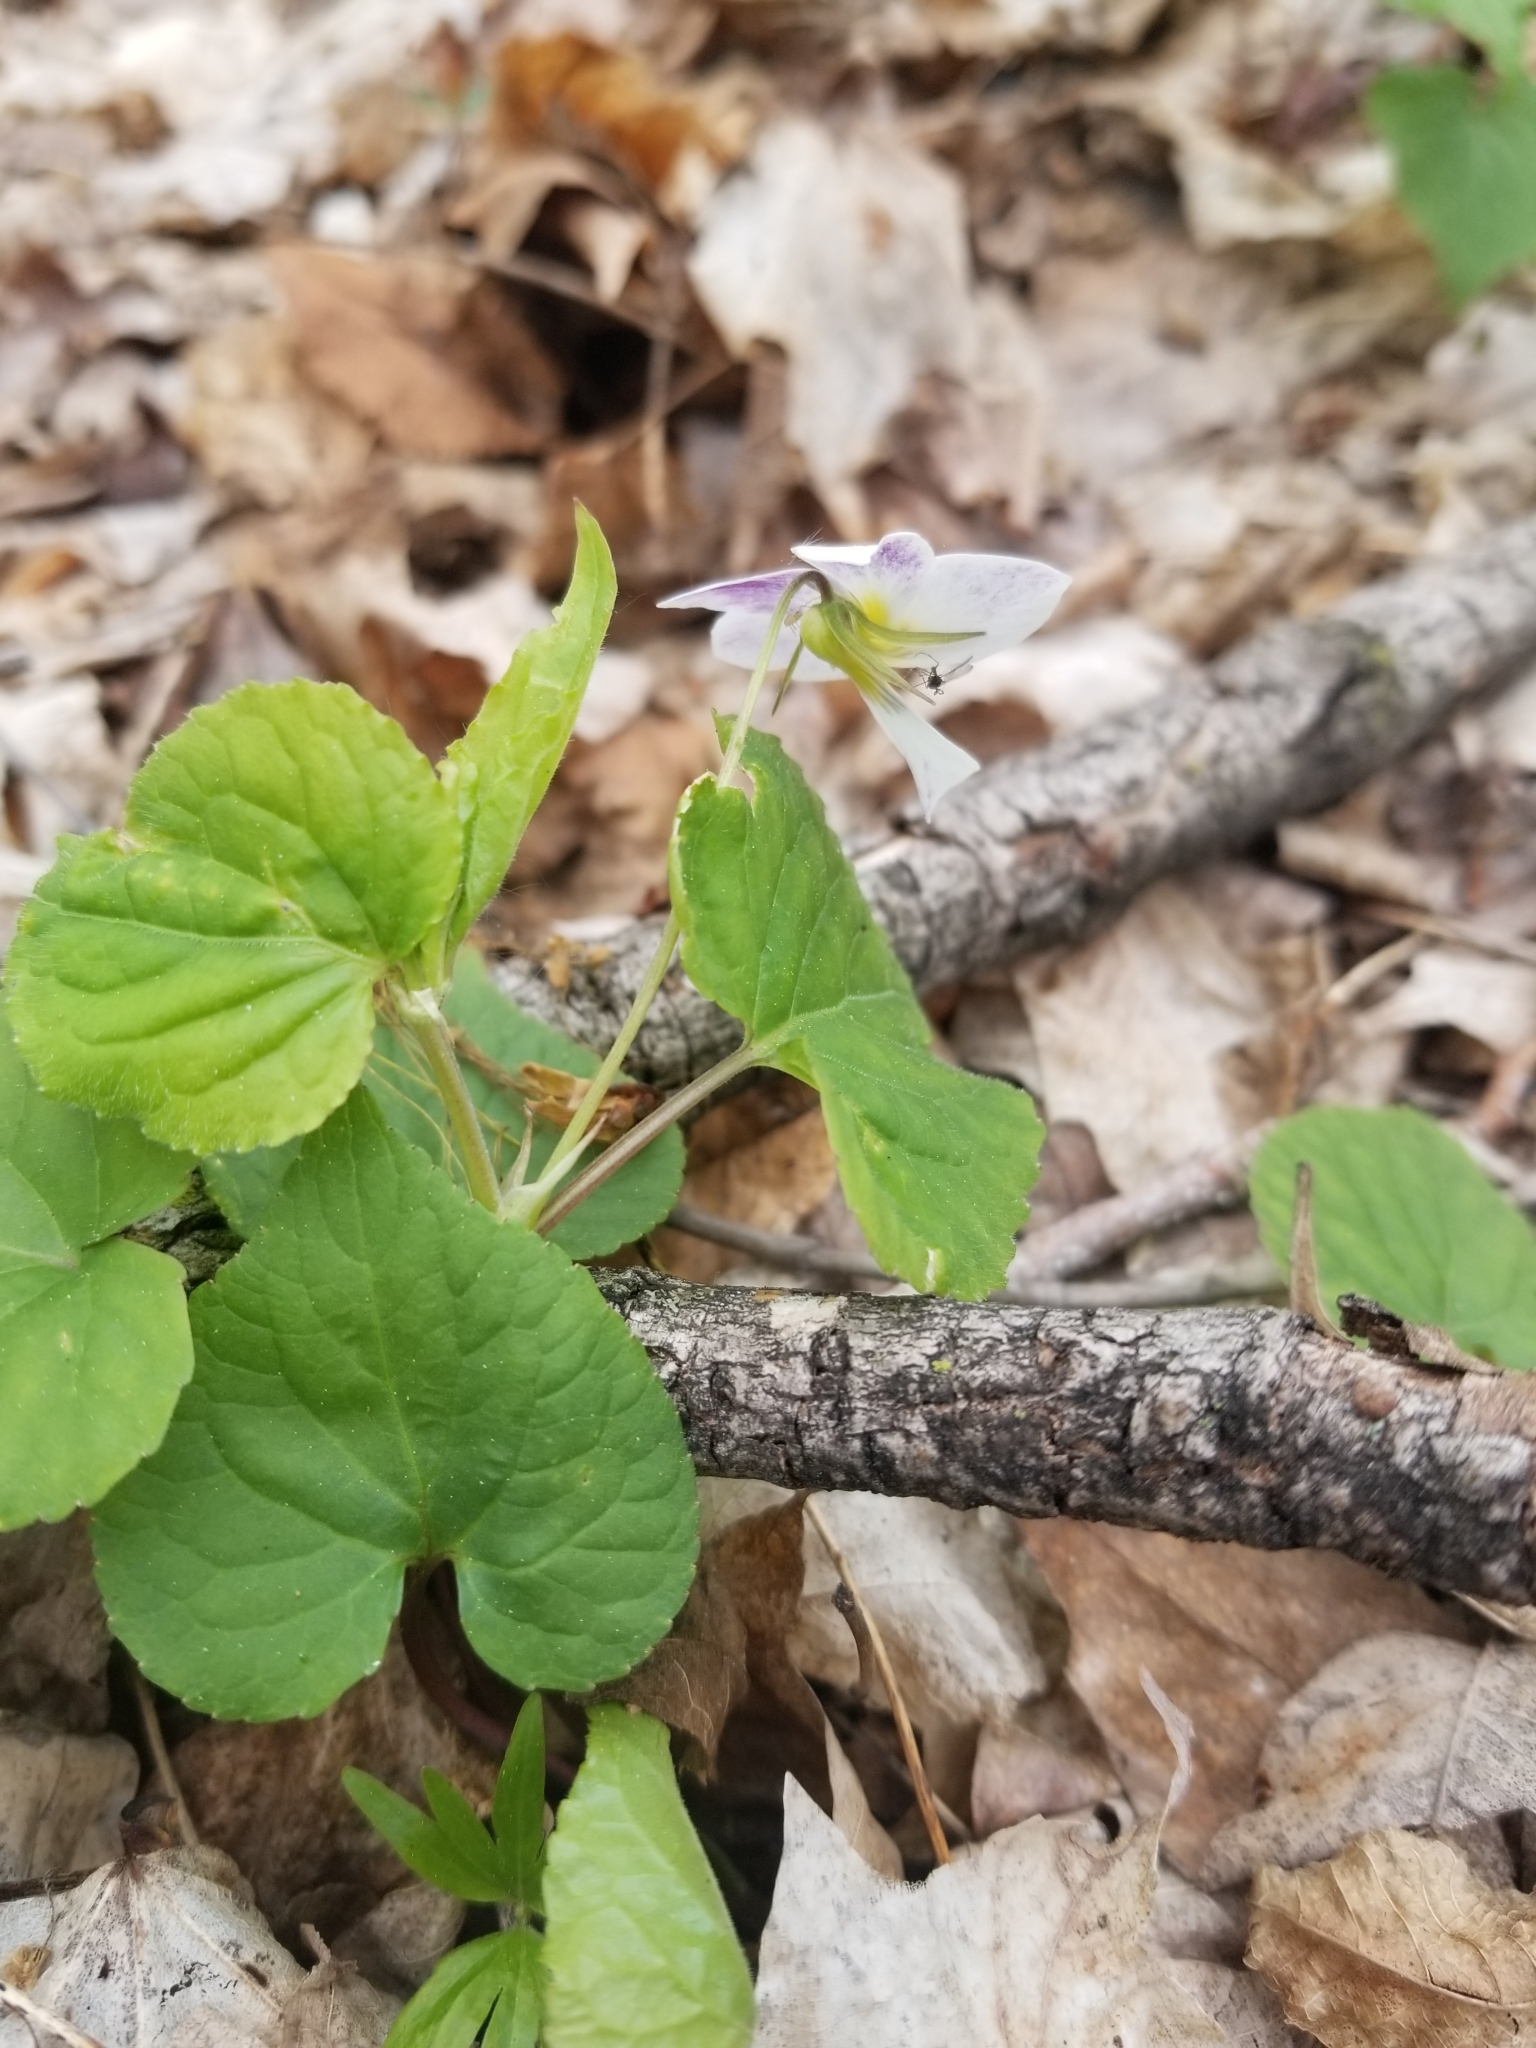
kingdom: Plantae
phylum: Tracheophyta
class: Magnoliopsida
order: Malpighiales
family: Violaceae
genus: Viola
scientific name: Viola canadensis
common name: Canada violet
